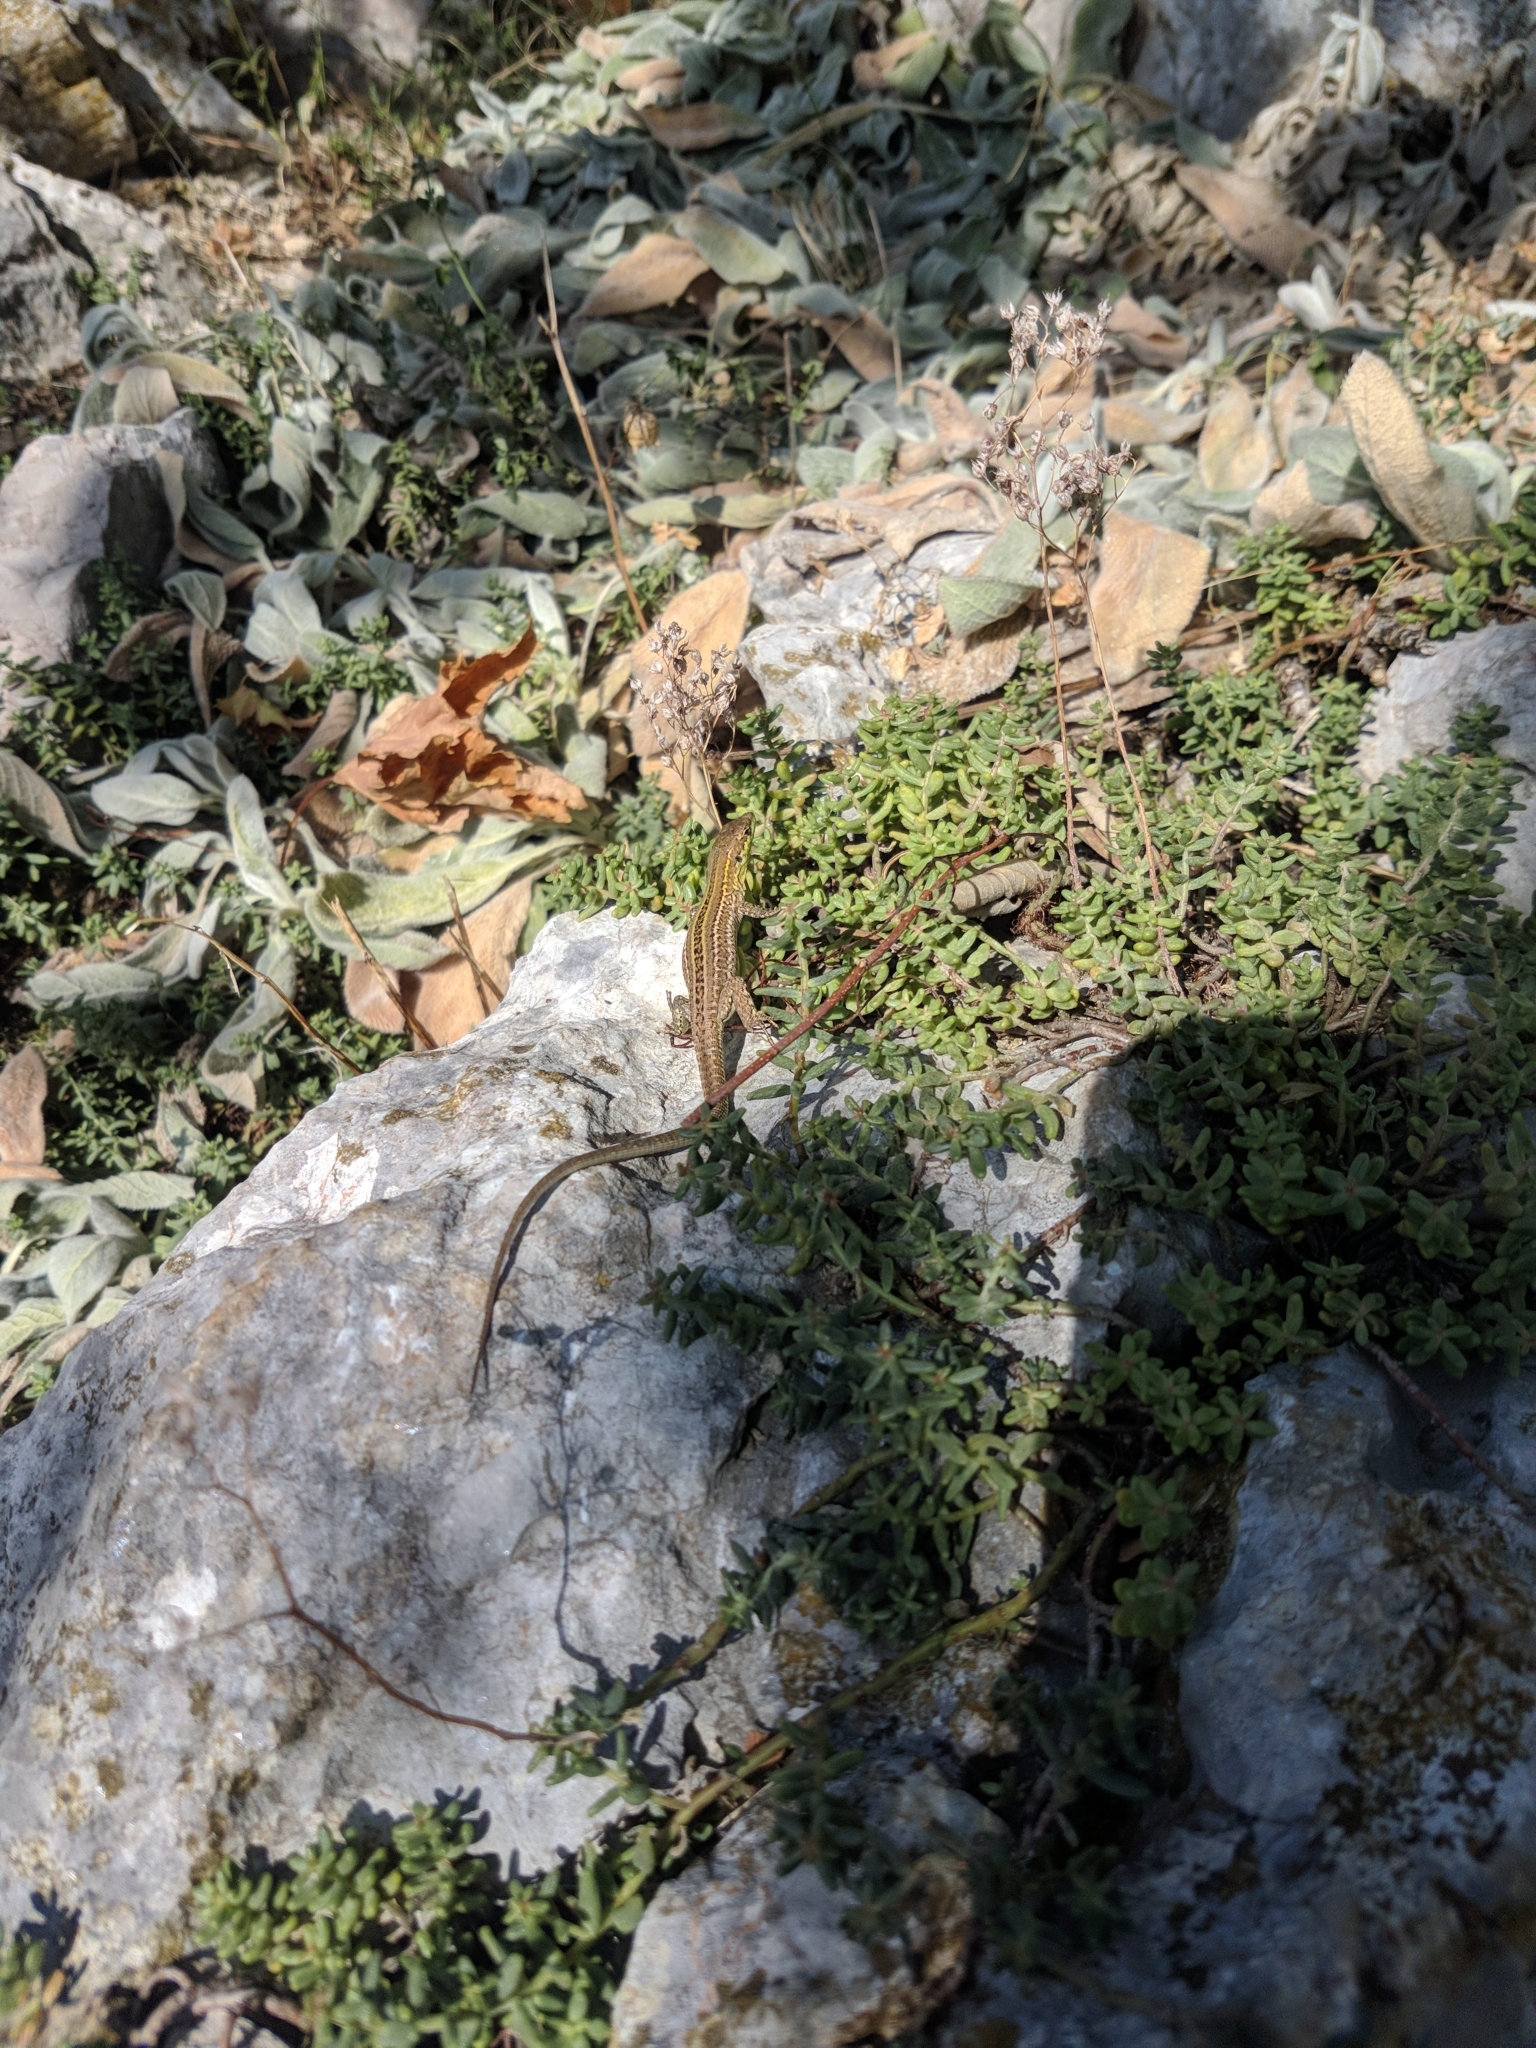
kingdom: Animalia
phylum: Chordata
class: Squamata
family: Lacertidae
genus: Podarcis
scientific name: Podarcis siculus
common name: Italian wall lizard
